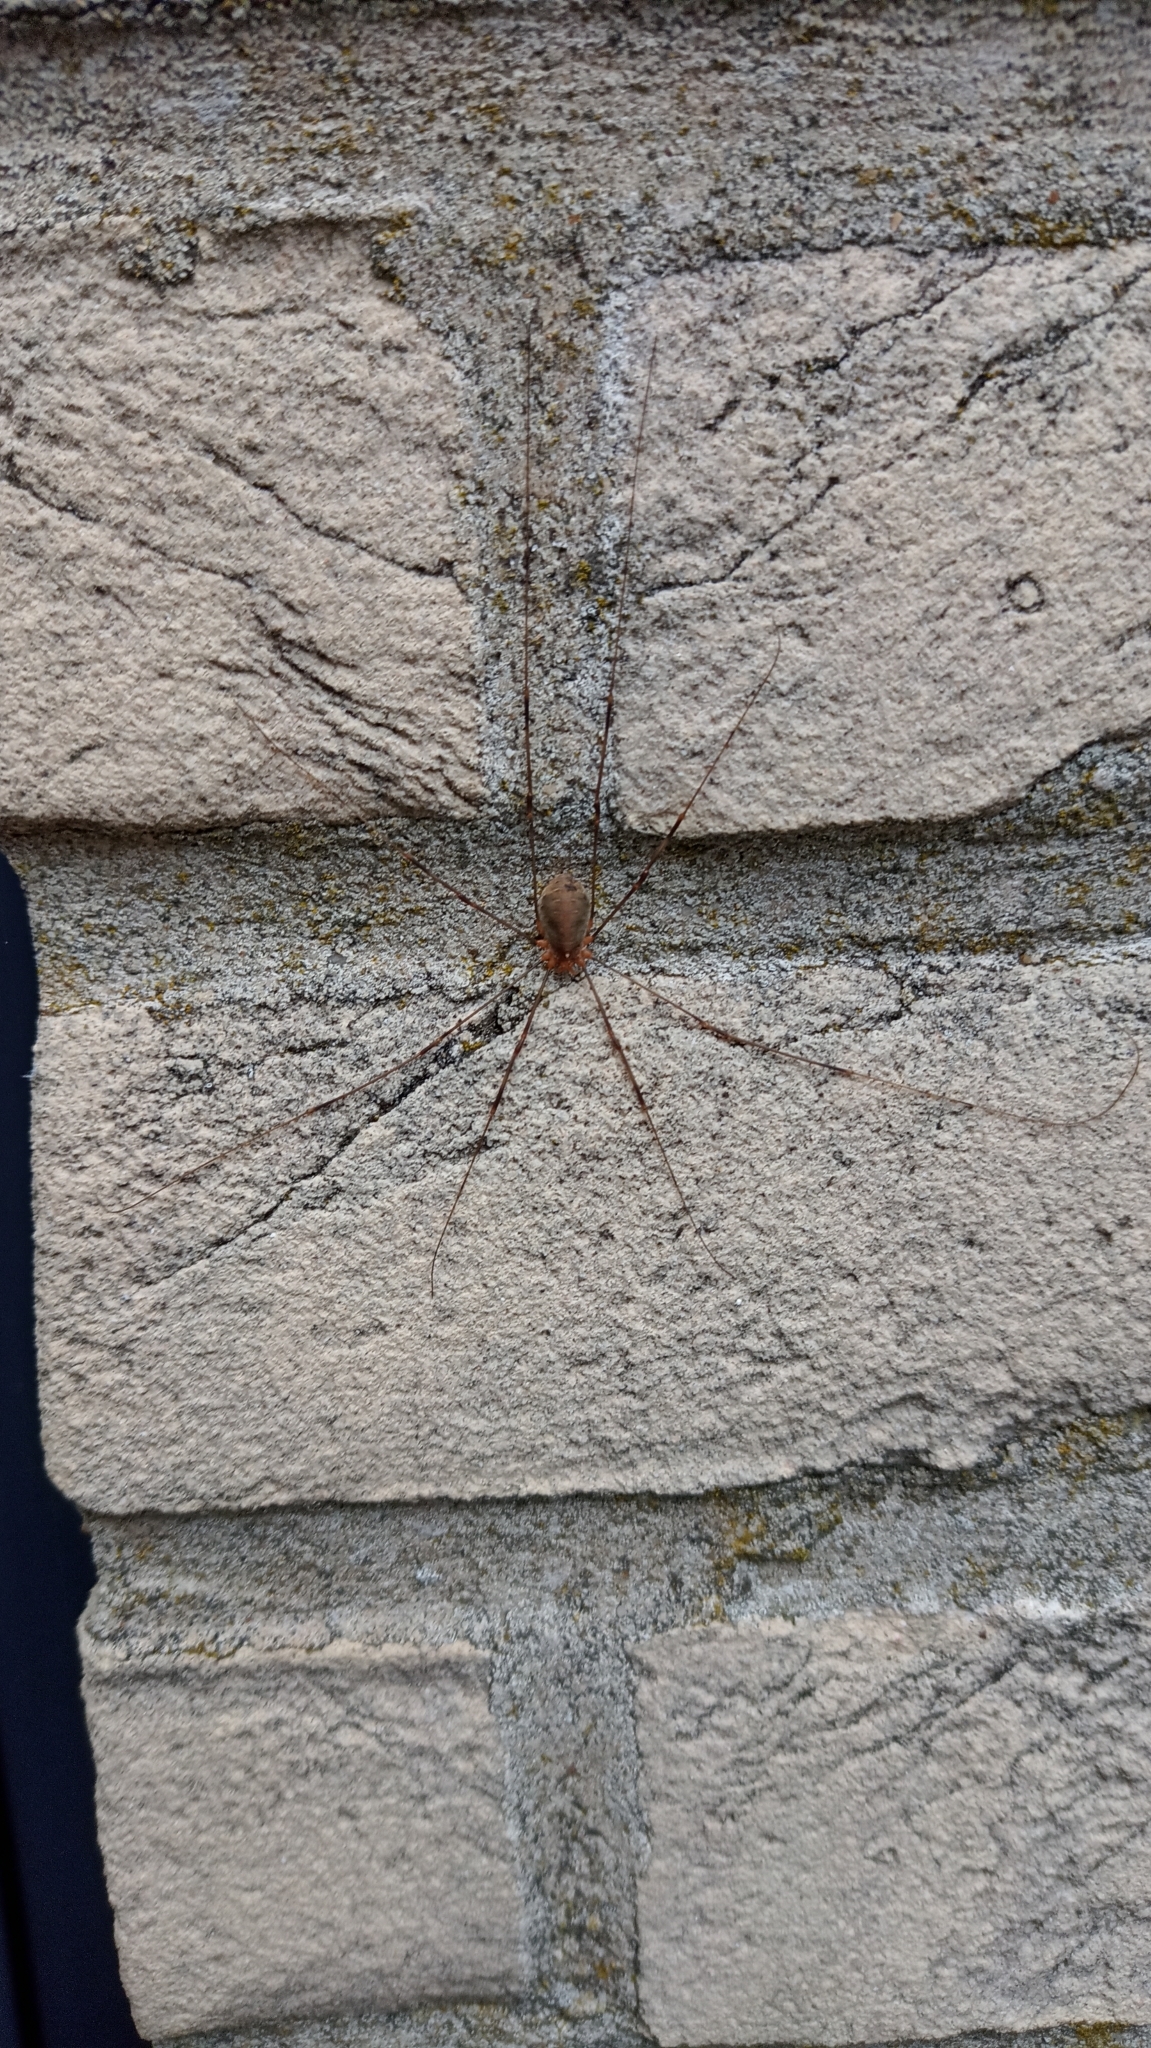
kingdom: Animalia
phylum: Arthropoda
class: Arachnida
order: Opiliones
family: Phalangiidae
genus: Opilio
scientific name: Opilio canestrinii
